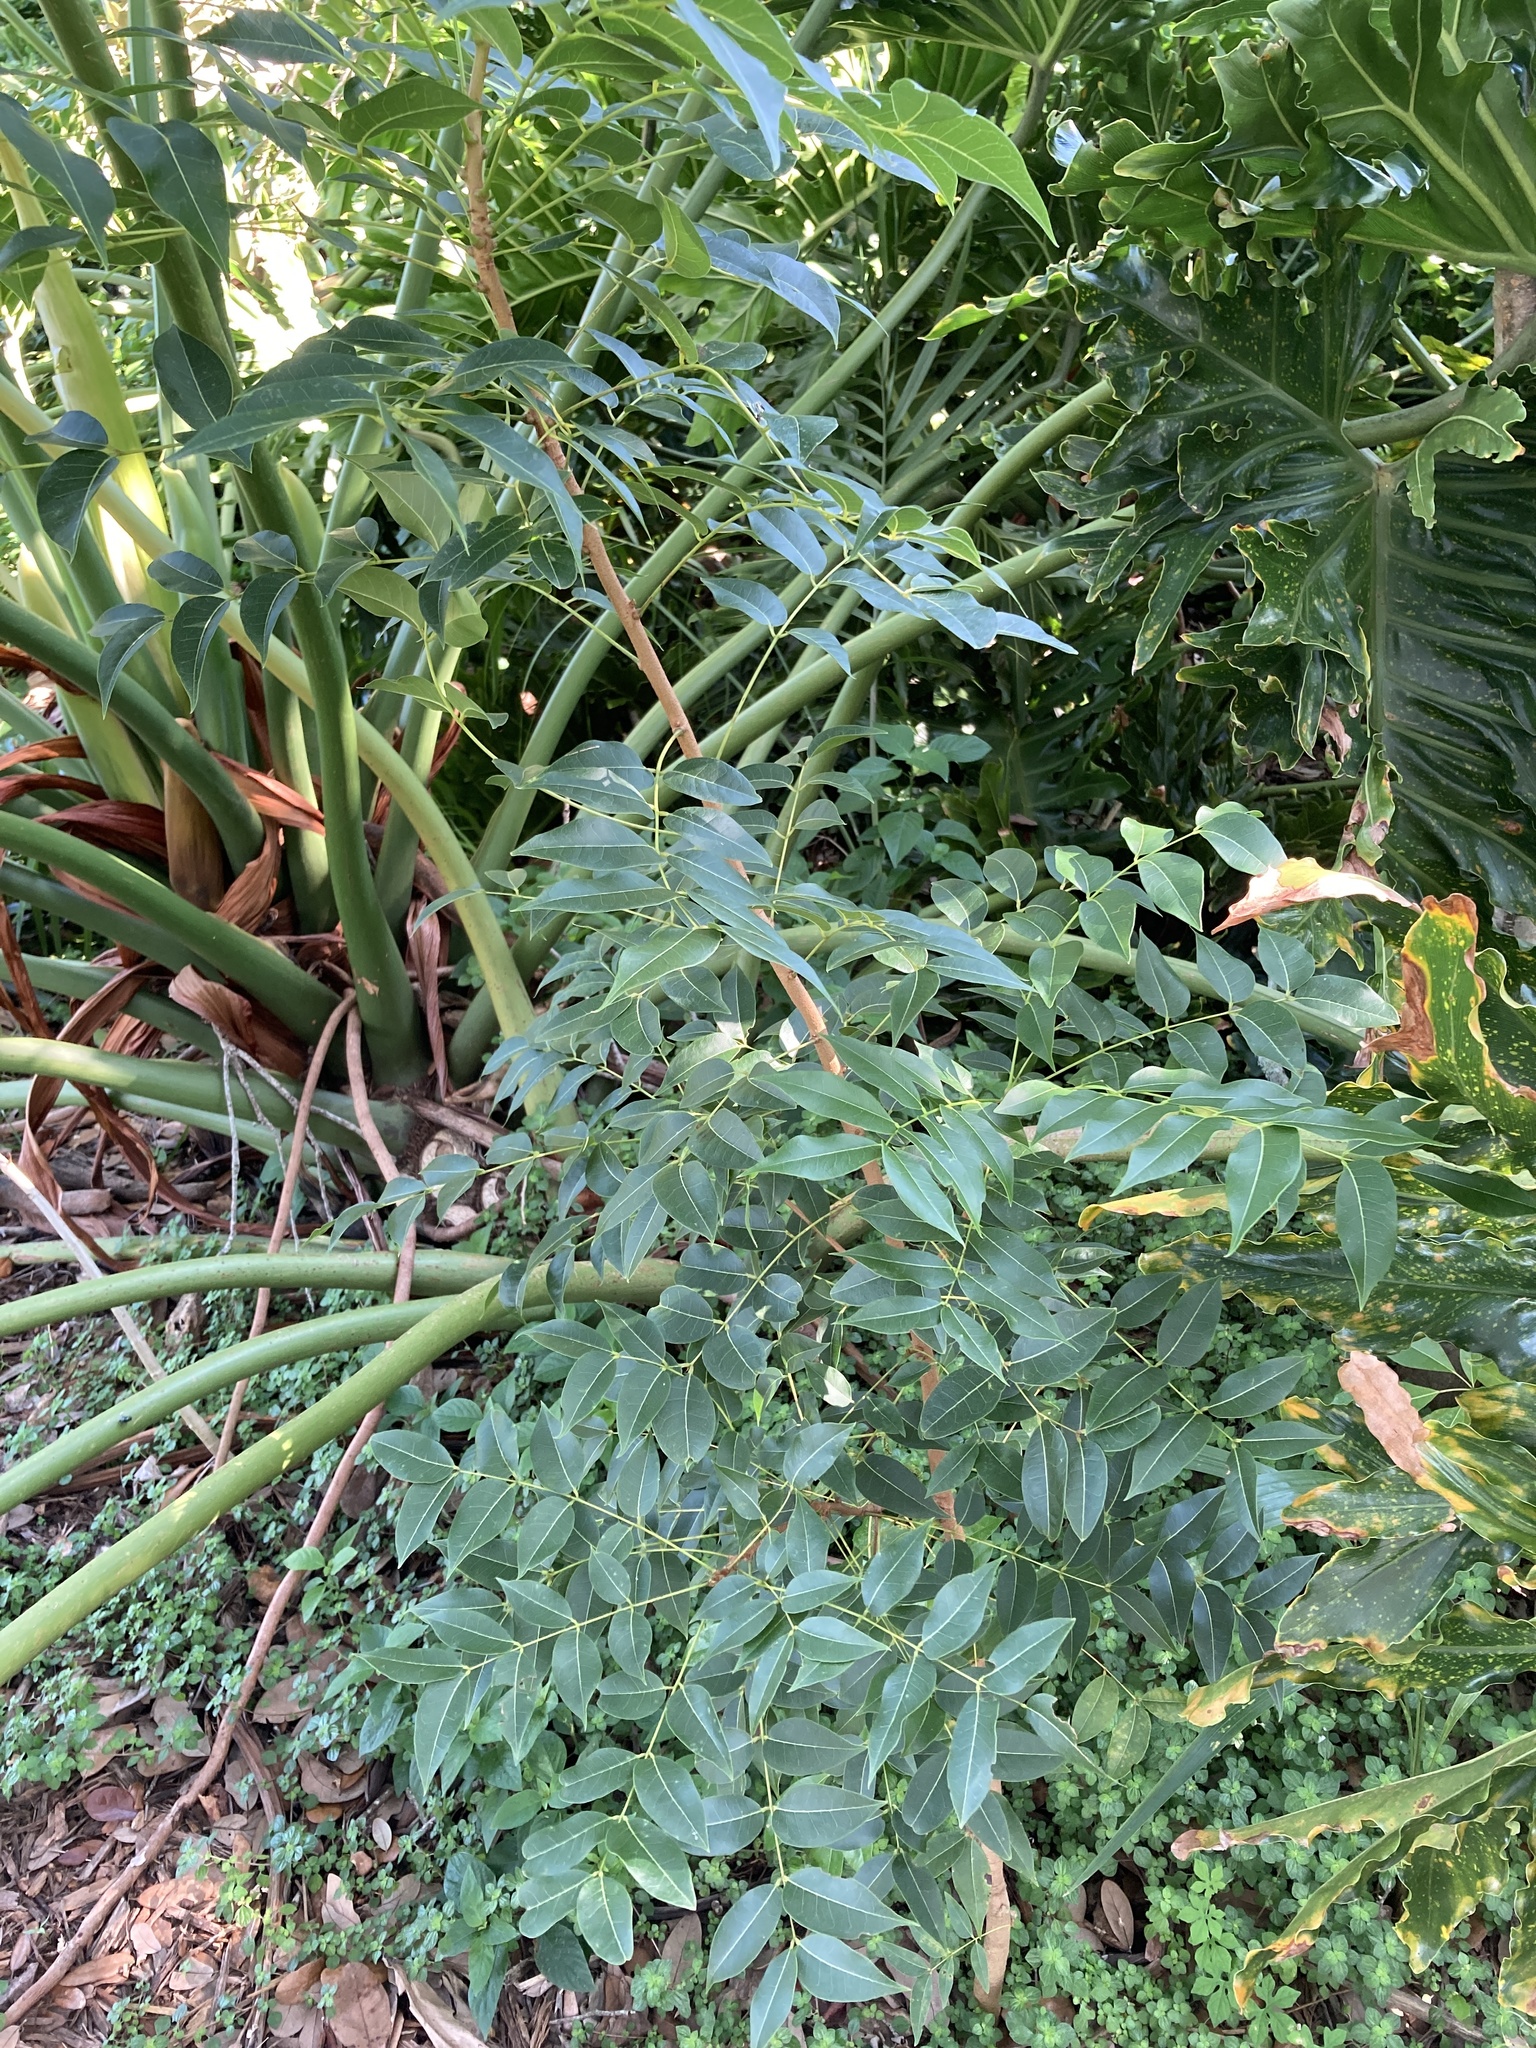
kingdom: Plantae
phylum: Tracheophyta
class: Magnoliopsida
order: Sapindales
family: Meliaceae
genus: Swietenia
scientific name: Swietenia mahagoni
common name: West indian mahogany
